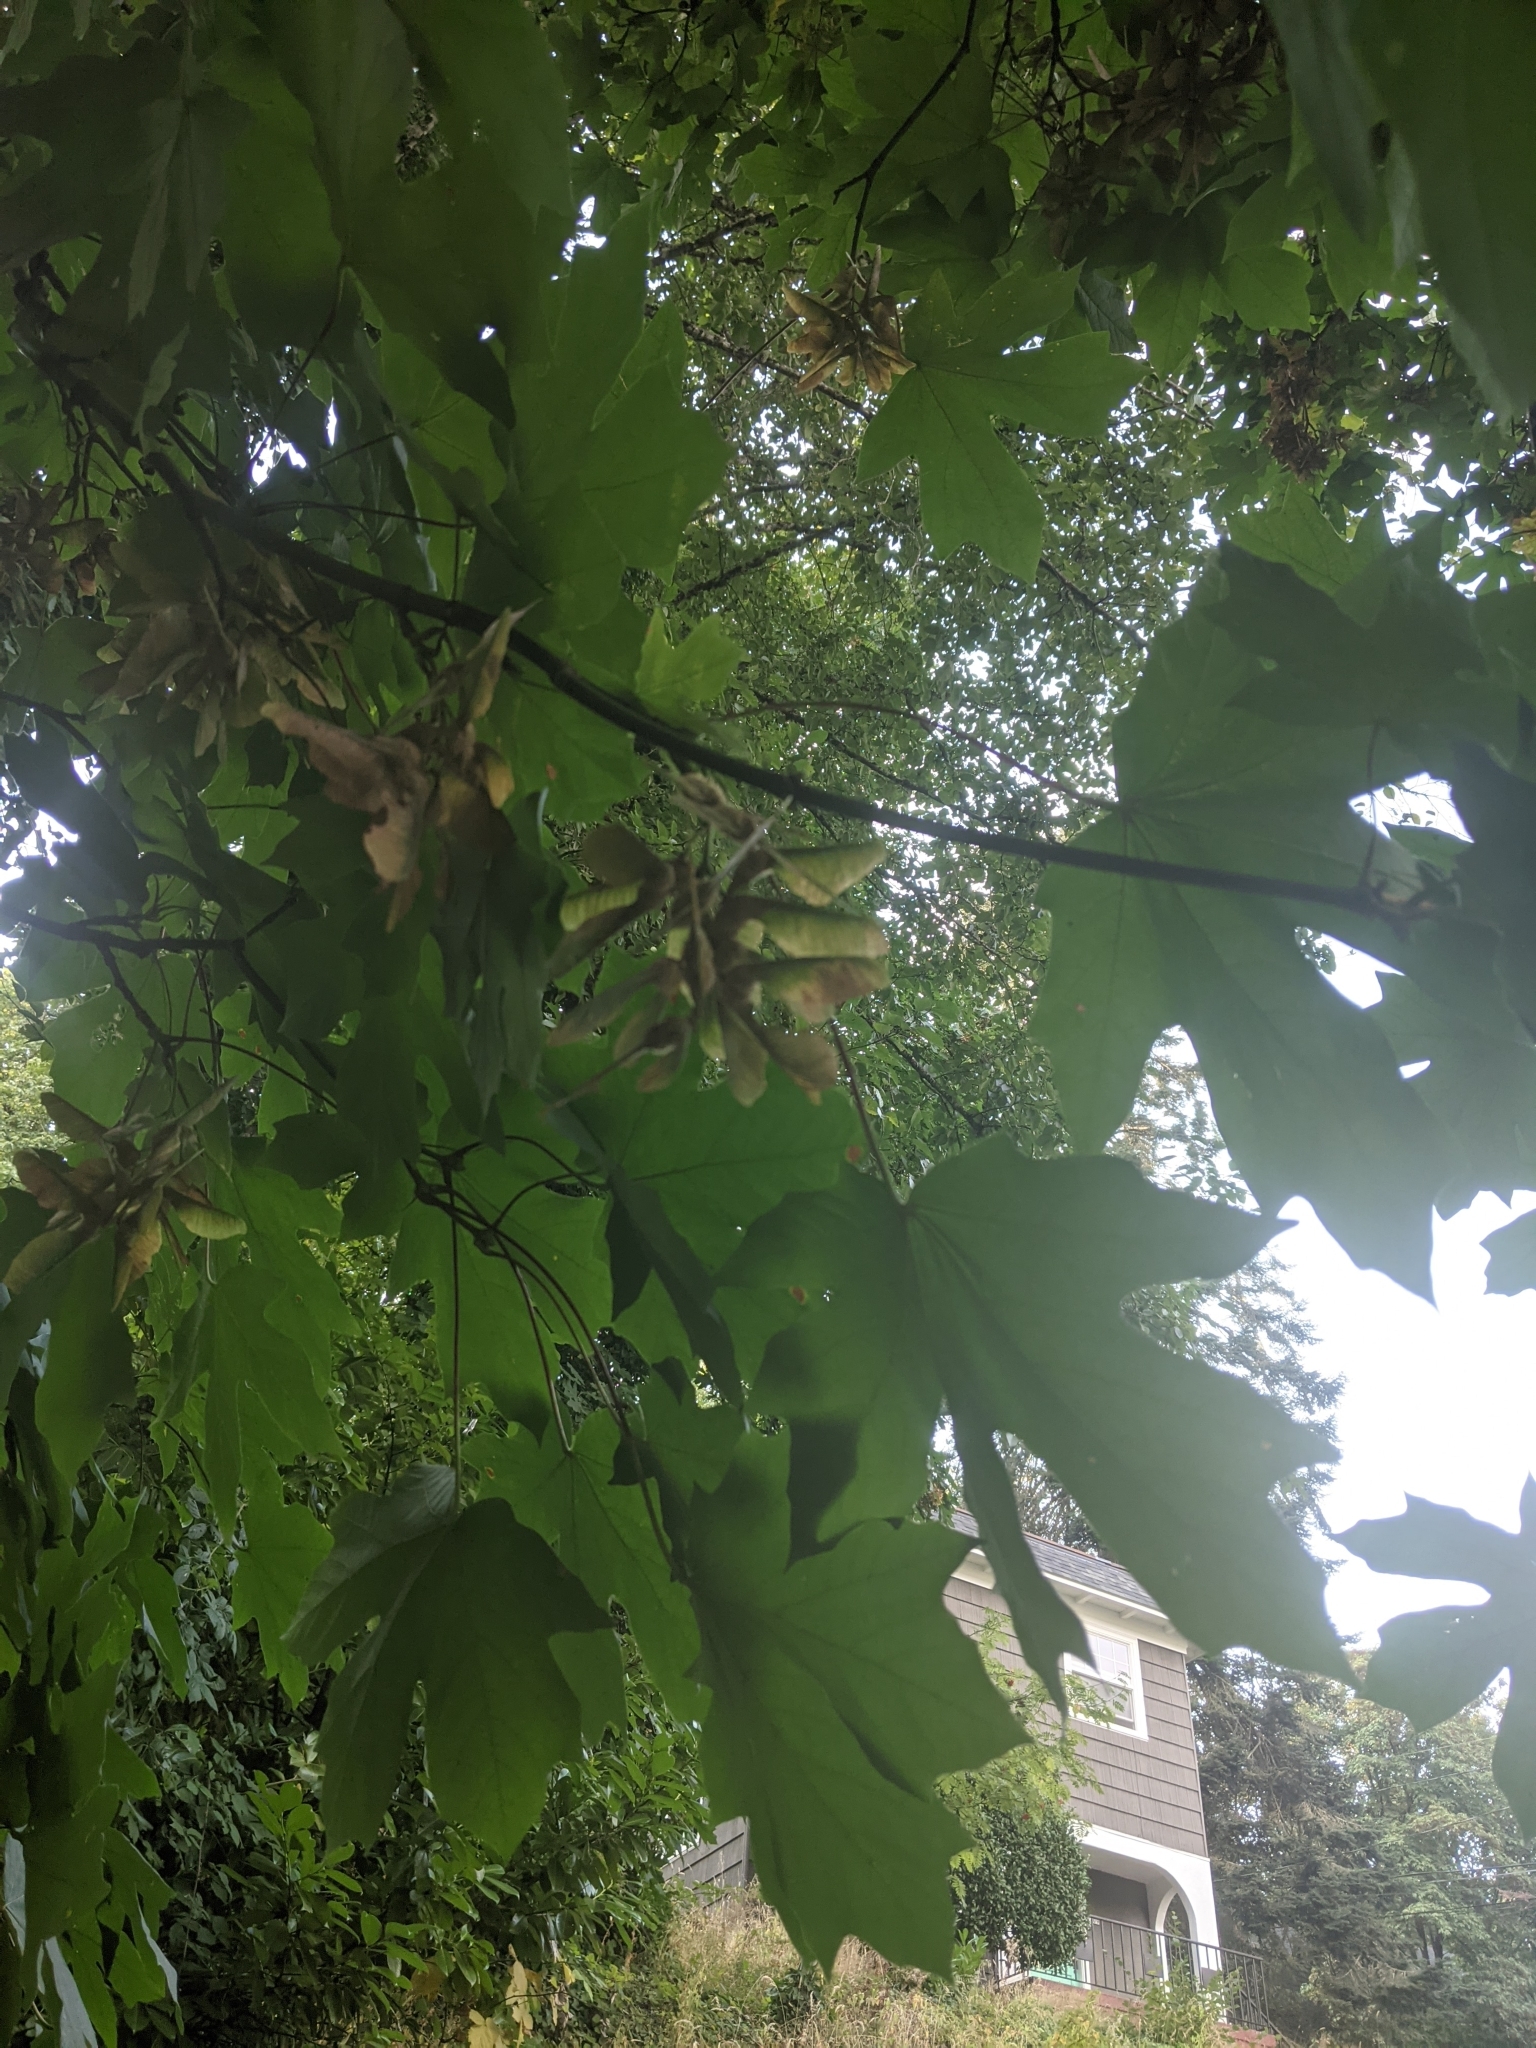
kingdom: Plantae
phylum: Tracheophyta
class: Magnoliopsida
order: Sapindales
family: Sapindaceae
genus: Acer
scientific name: Acer macrophyllum
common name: Oregon maple
